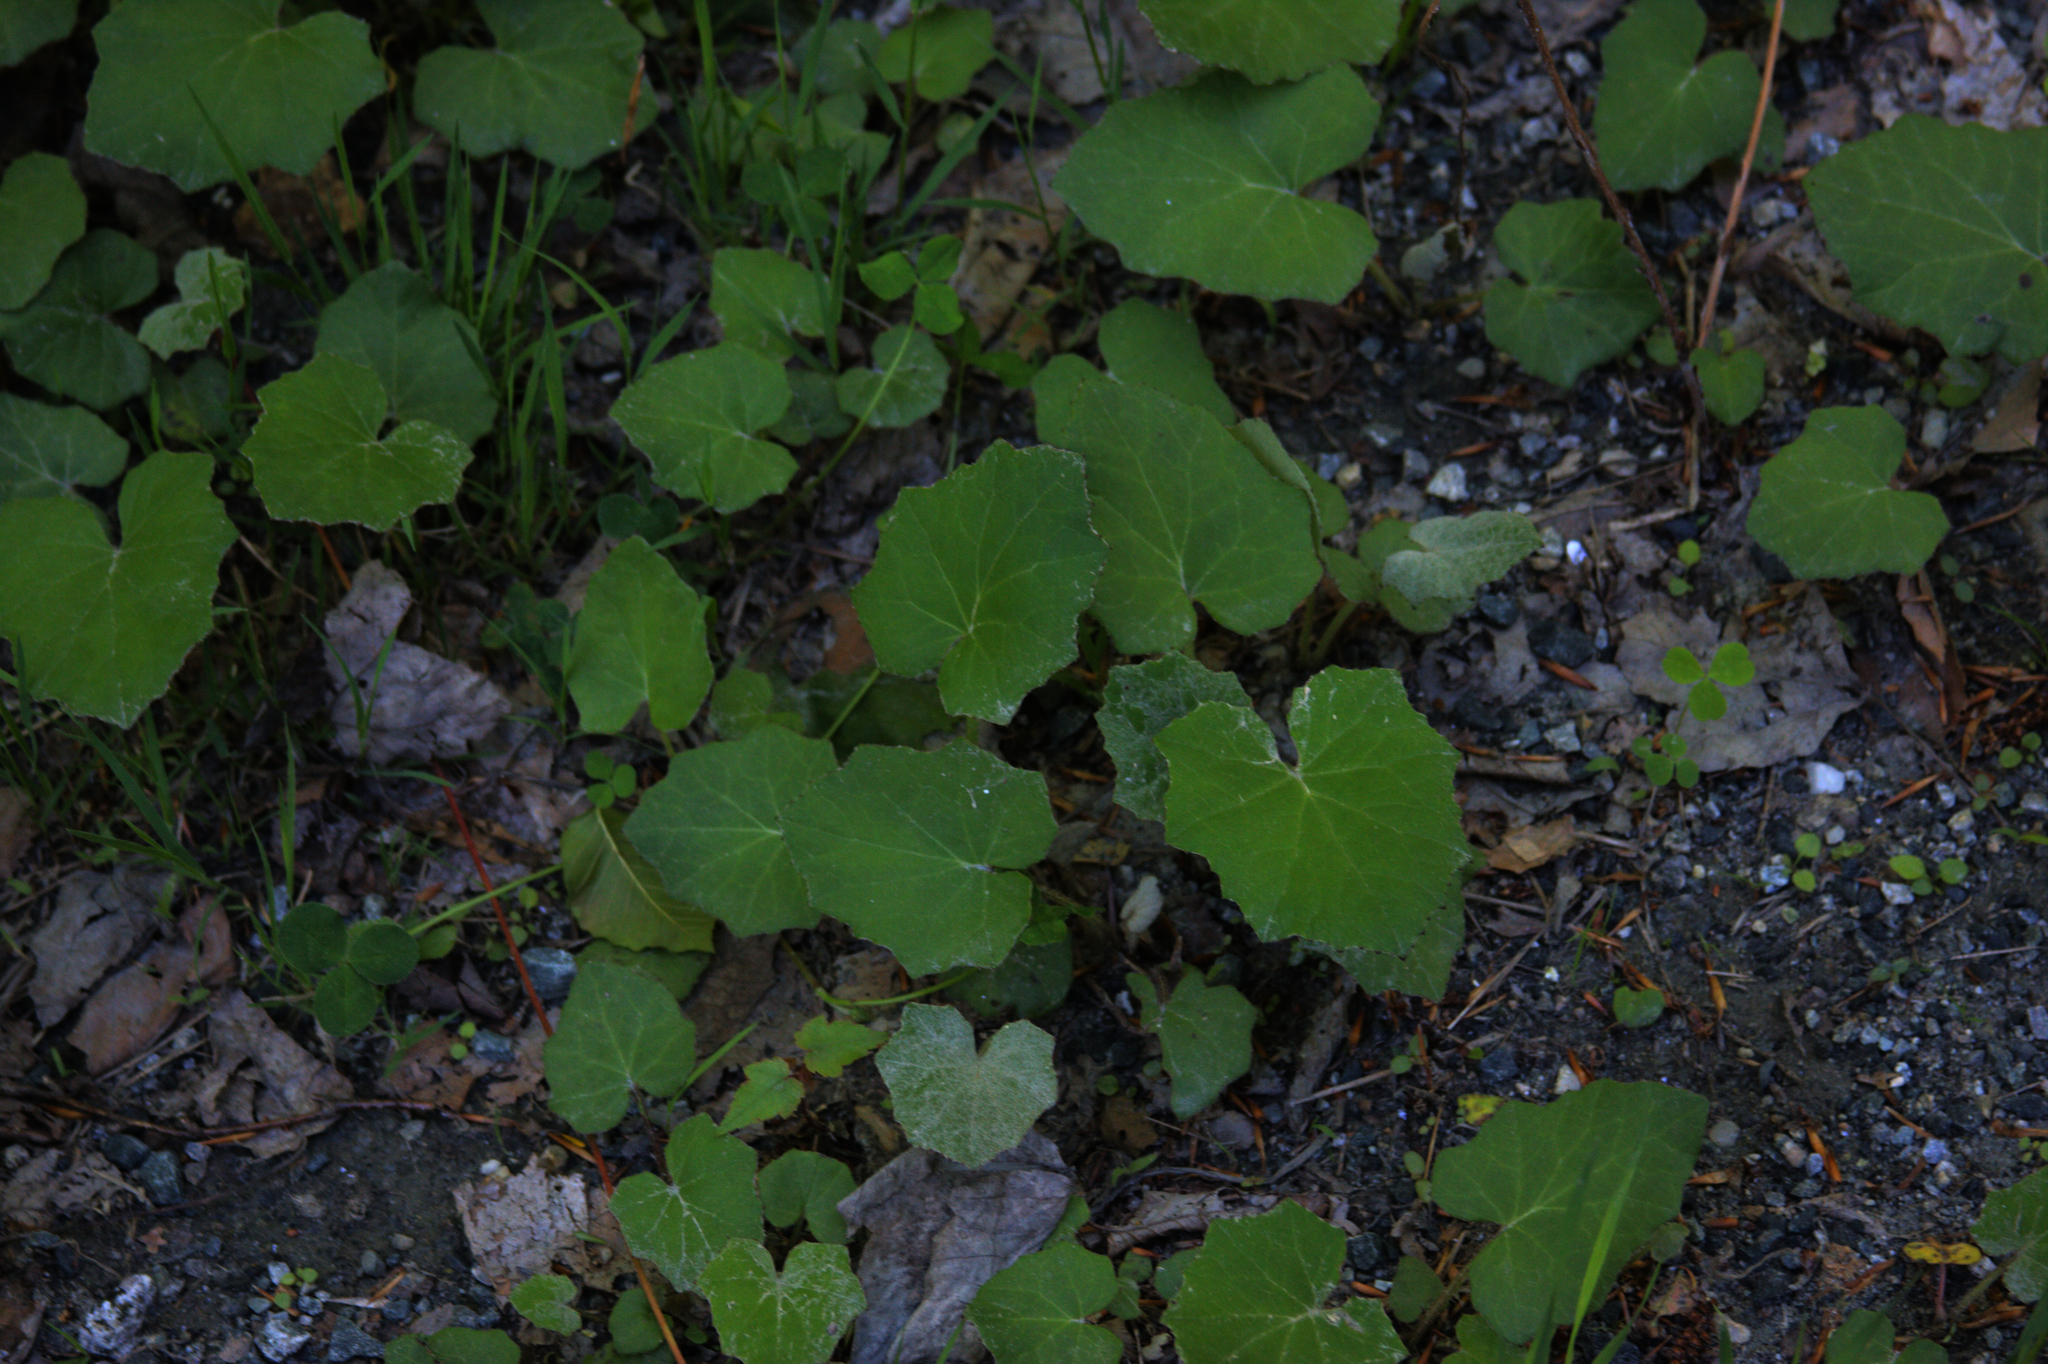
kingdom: Plantae
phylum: Tracheophyta
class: Magnoliopsida
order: Asterales
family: Asteraceae
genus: Tussilago
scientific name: Tussilago farfara
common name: Coltsfoot
